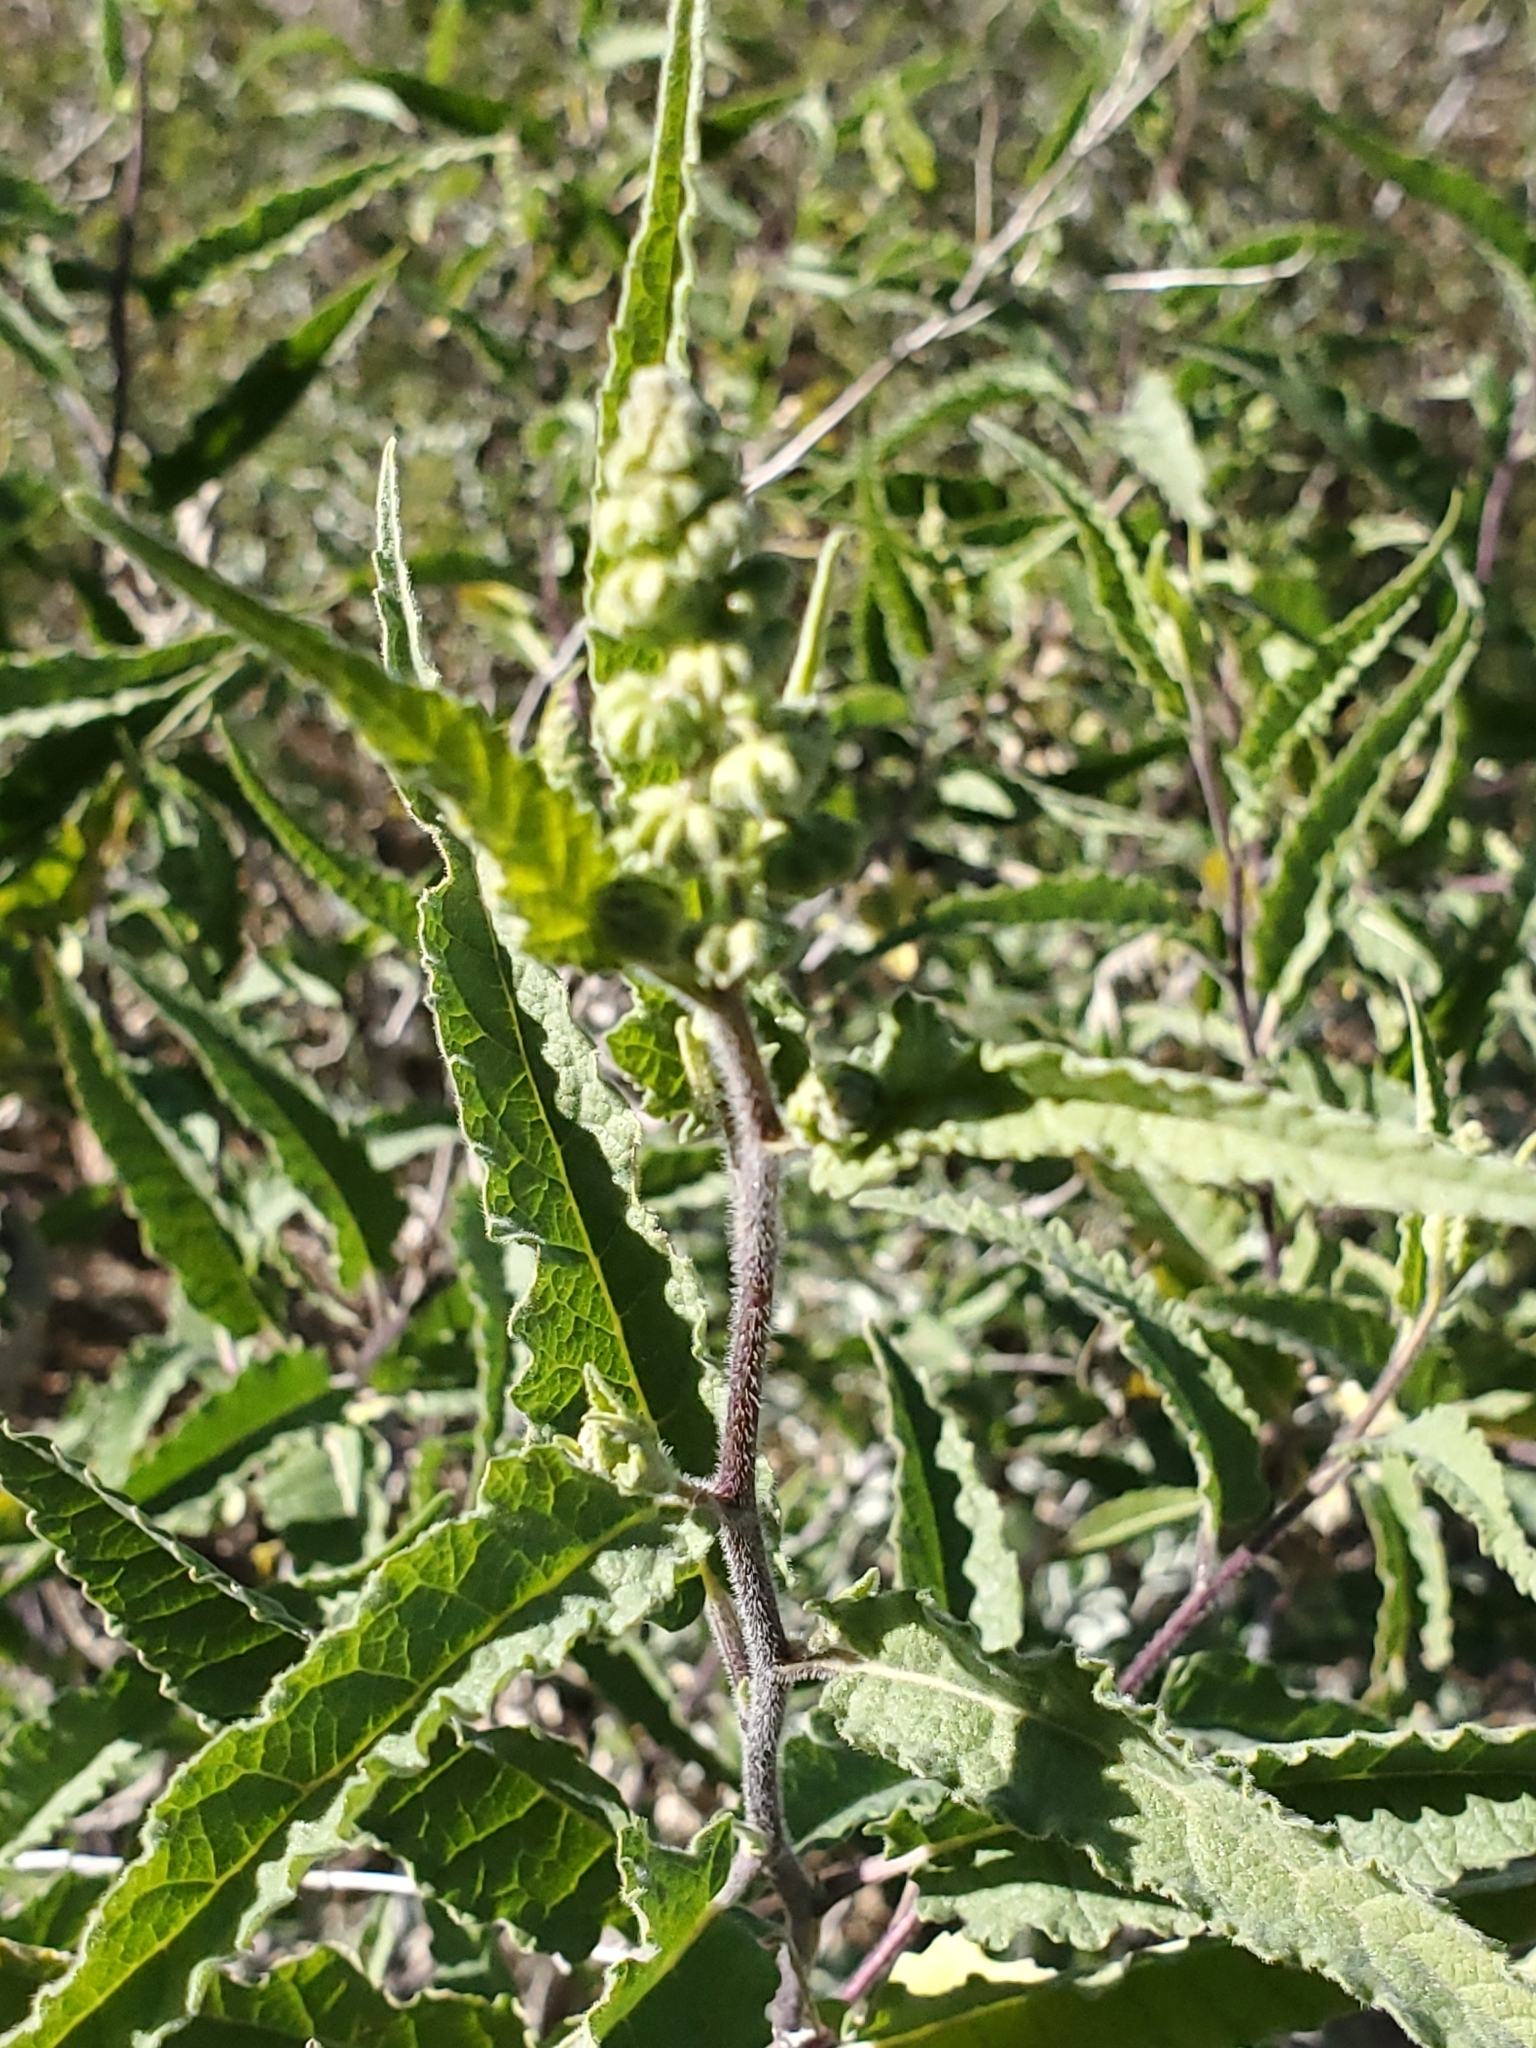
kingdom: Plantae
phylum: Tracheophyta
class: Magnoliopsida
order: Asterales
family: Asteraceae
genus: Ambrosia
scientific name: Ambrosia ambrosioides
